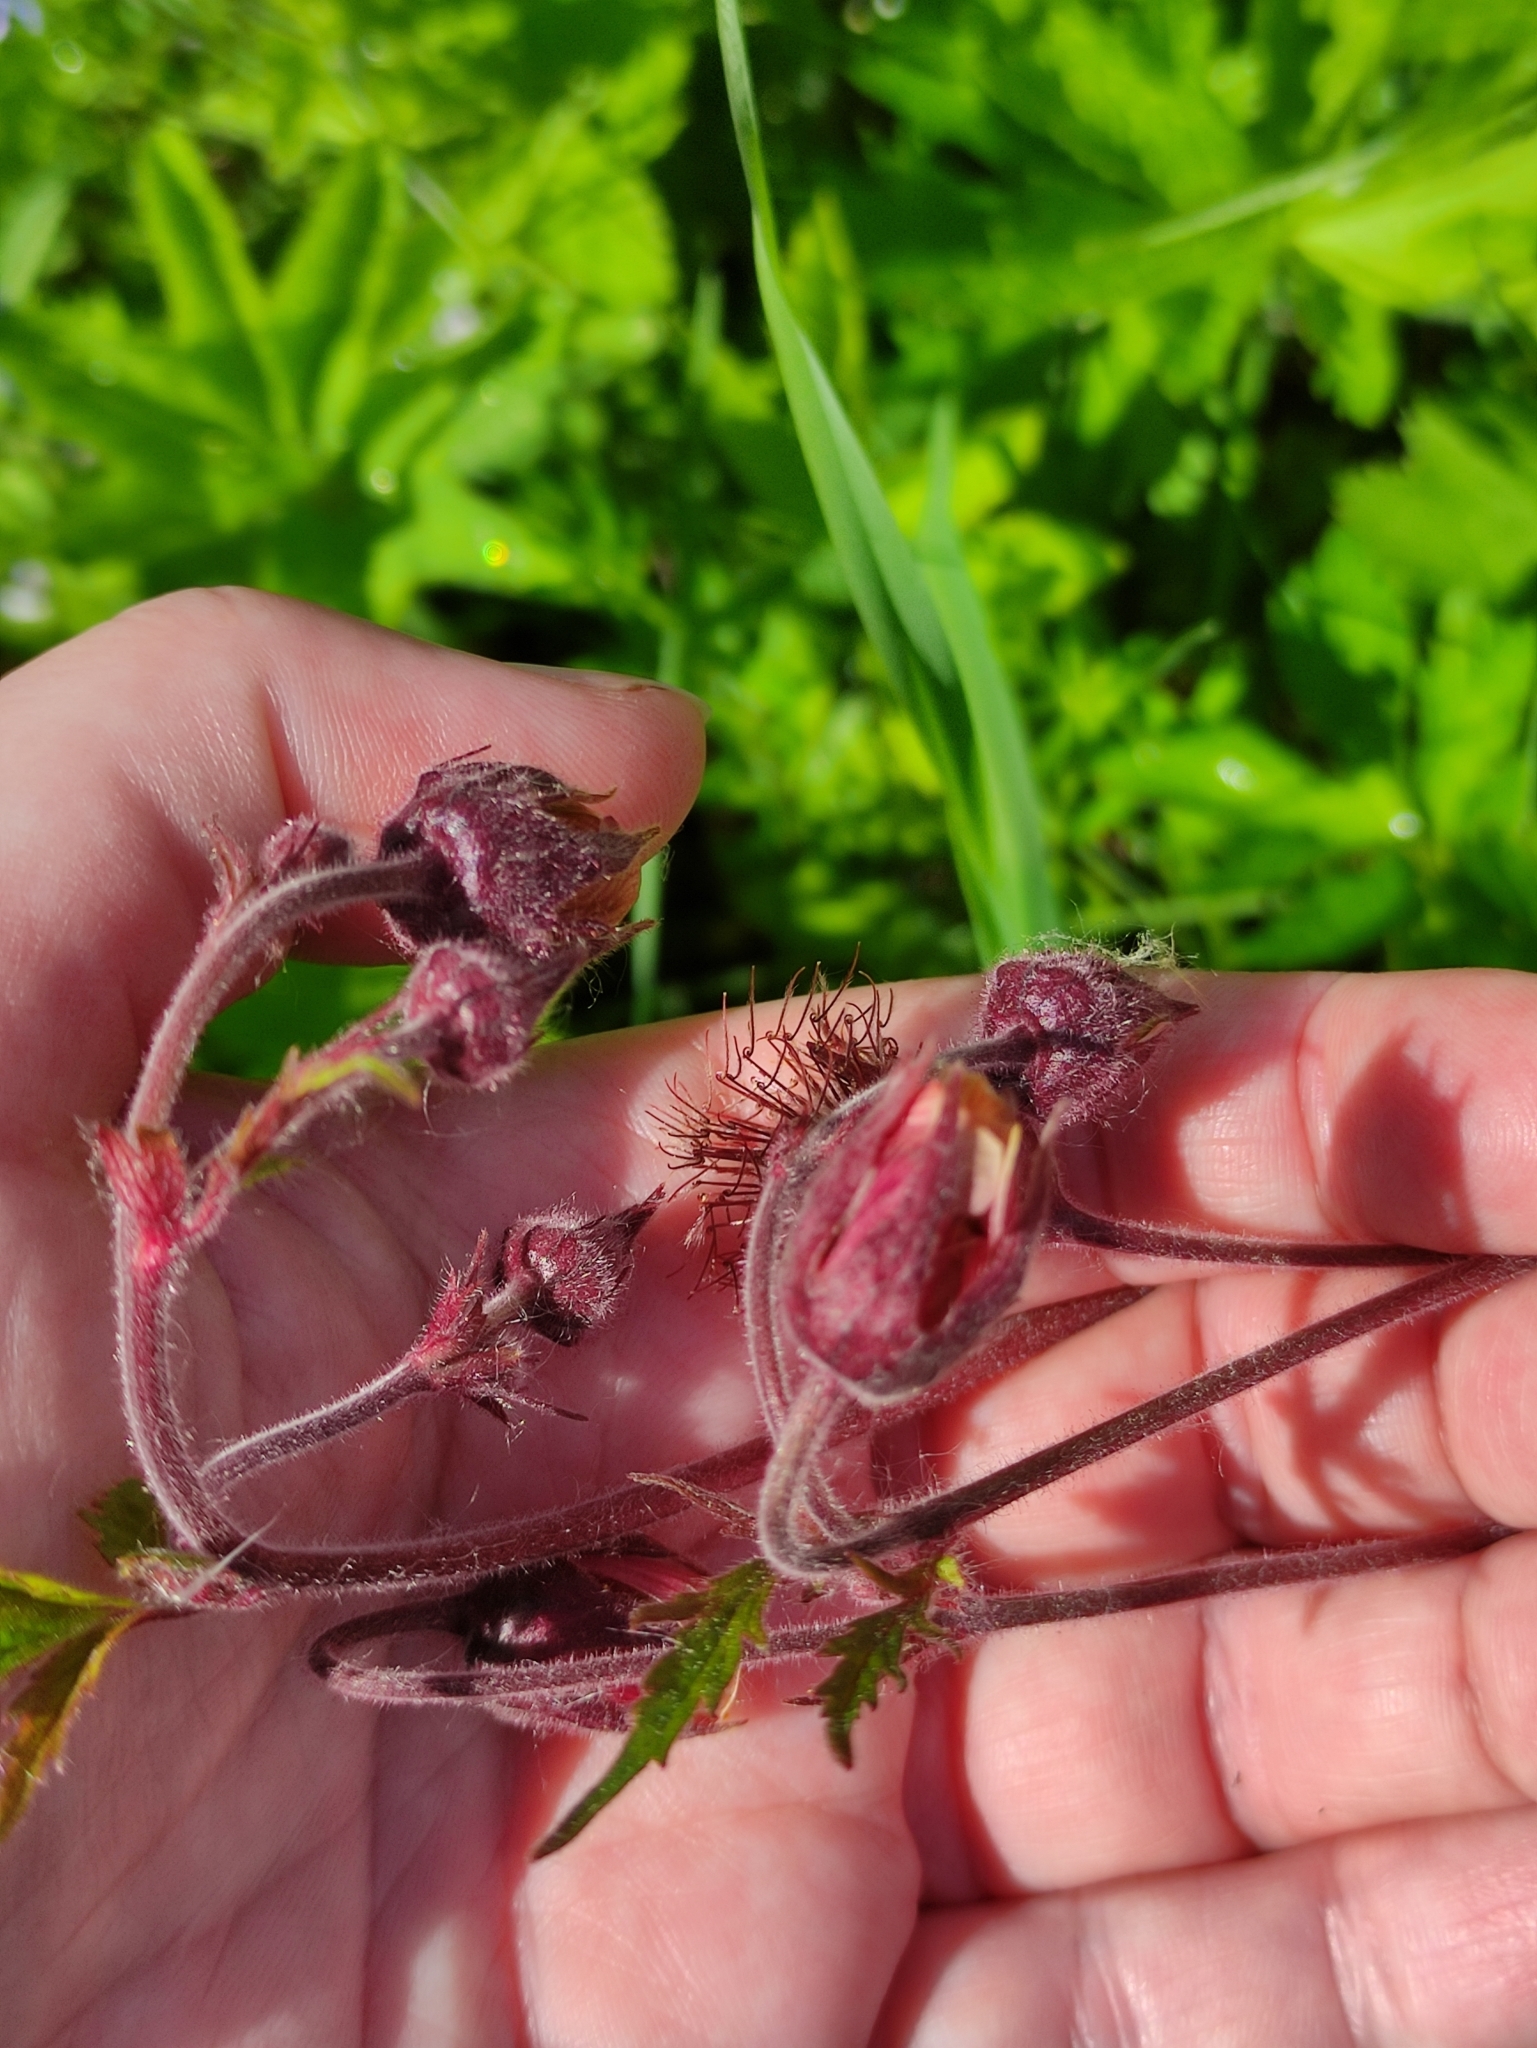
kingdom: Plantae
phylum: Tracheophyta
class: Magnoliopsida
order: Rosales
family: Rosaceae
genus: Geum
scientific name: Geum rivale
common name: Water avens
